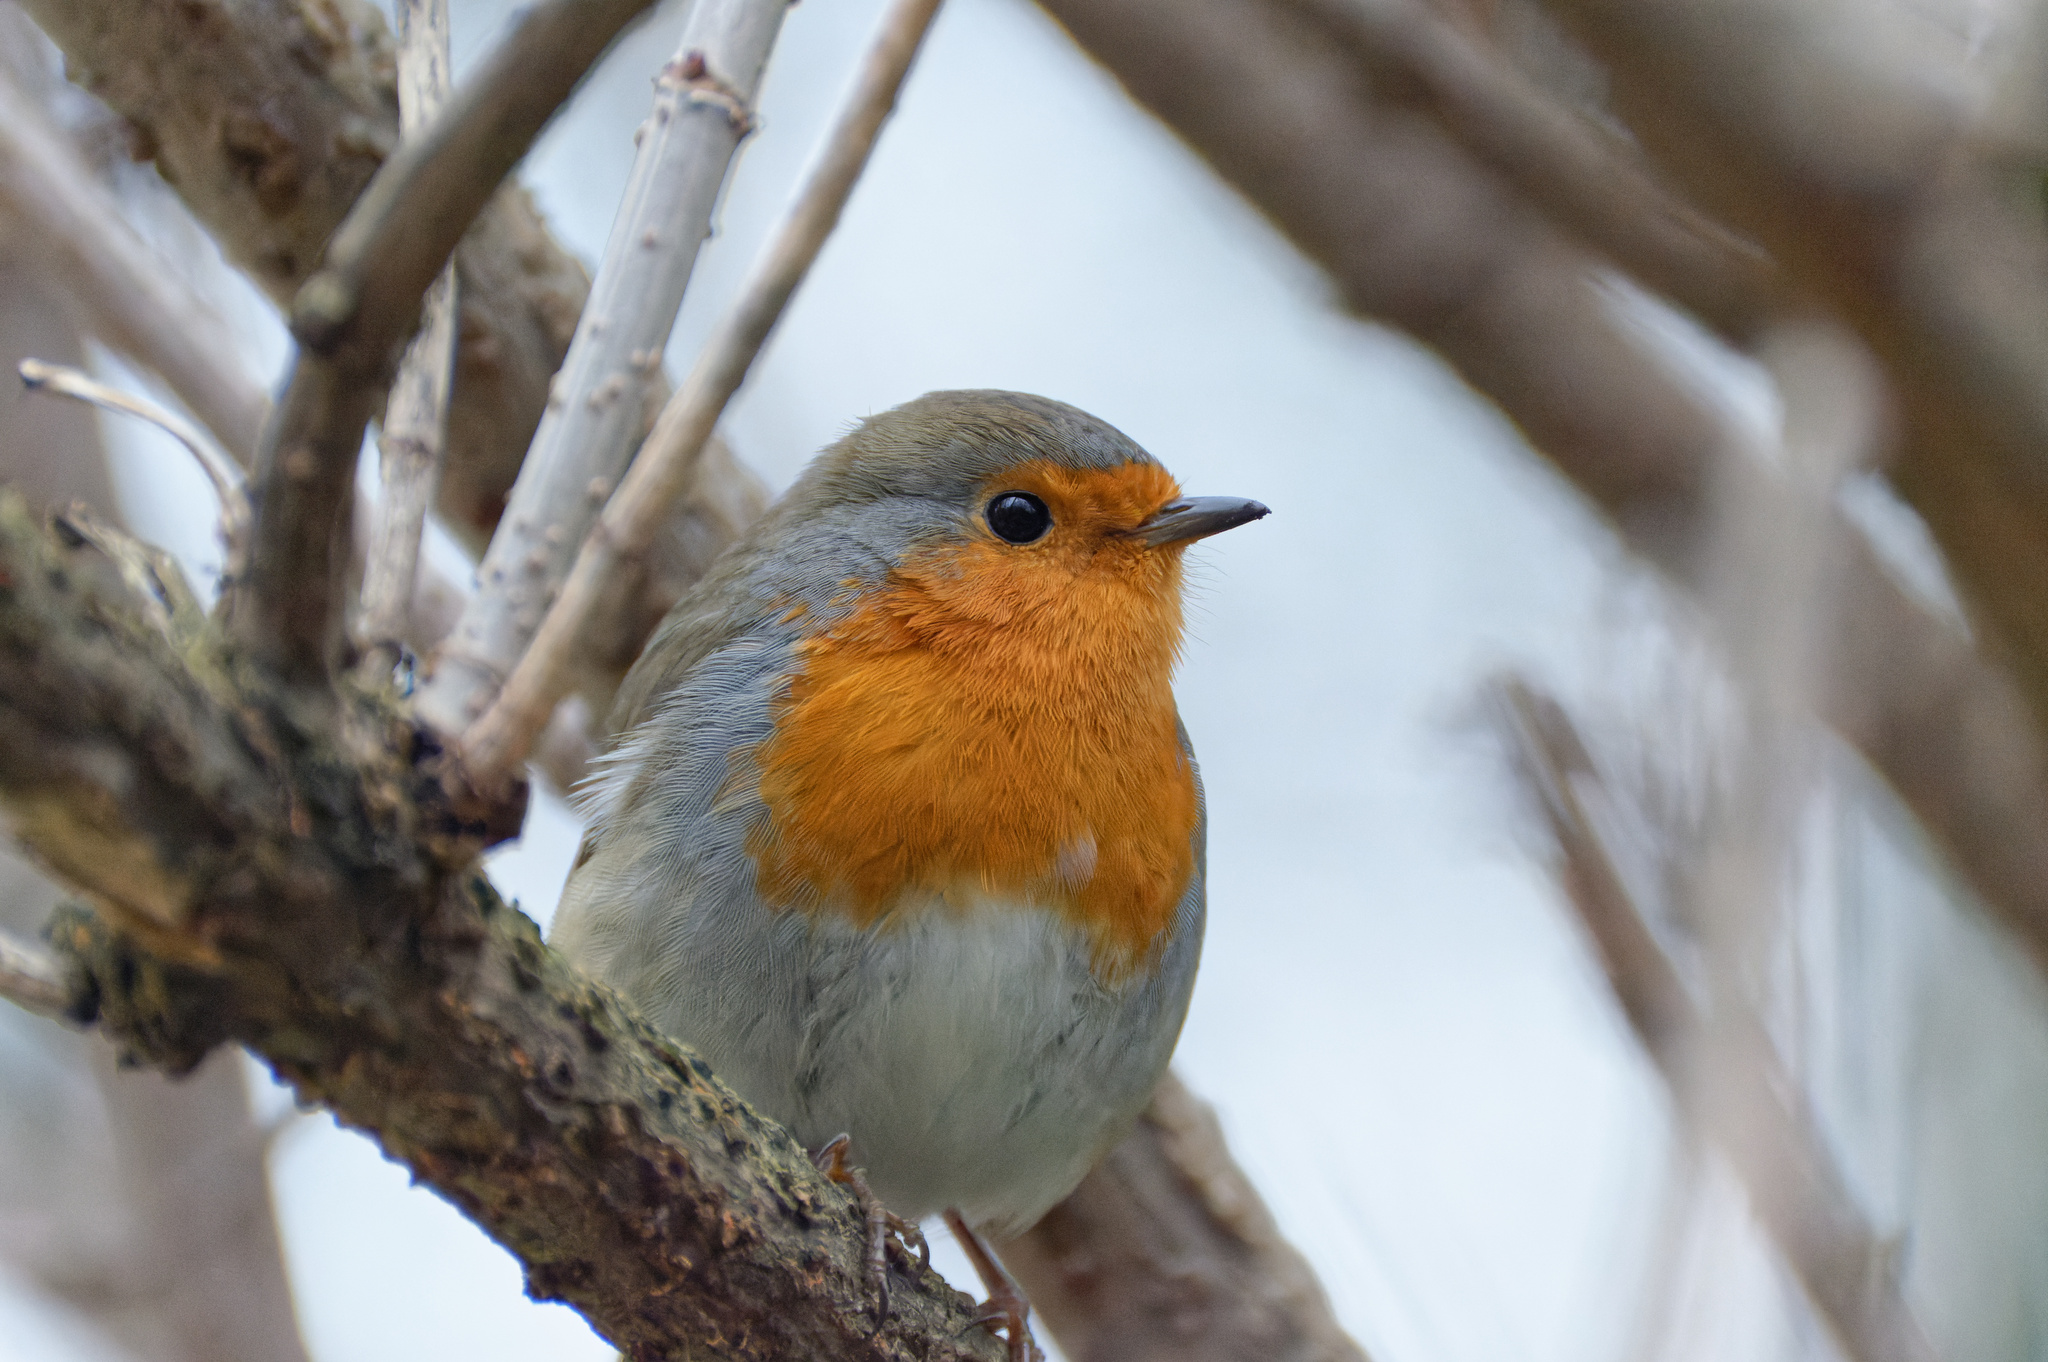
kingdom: Animalia
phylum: Chordata
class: Aves
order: Passeriformes
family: Muscicapidae
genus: Erithacus
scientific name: Erithacus rubecula
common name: European robin
